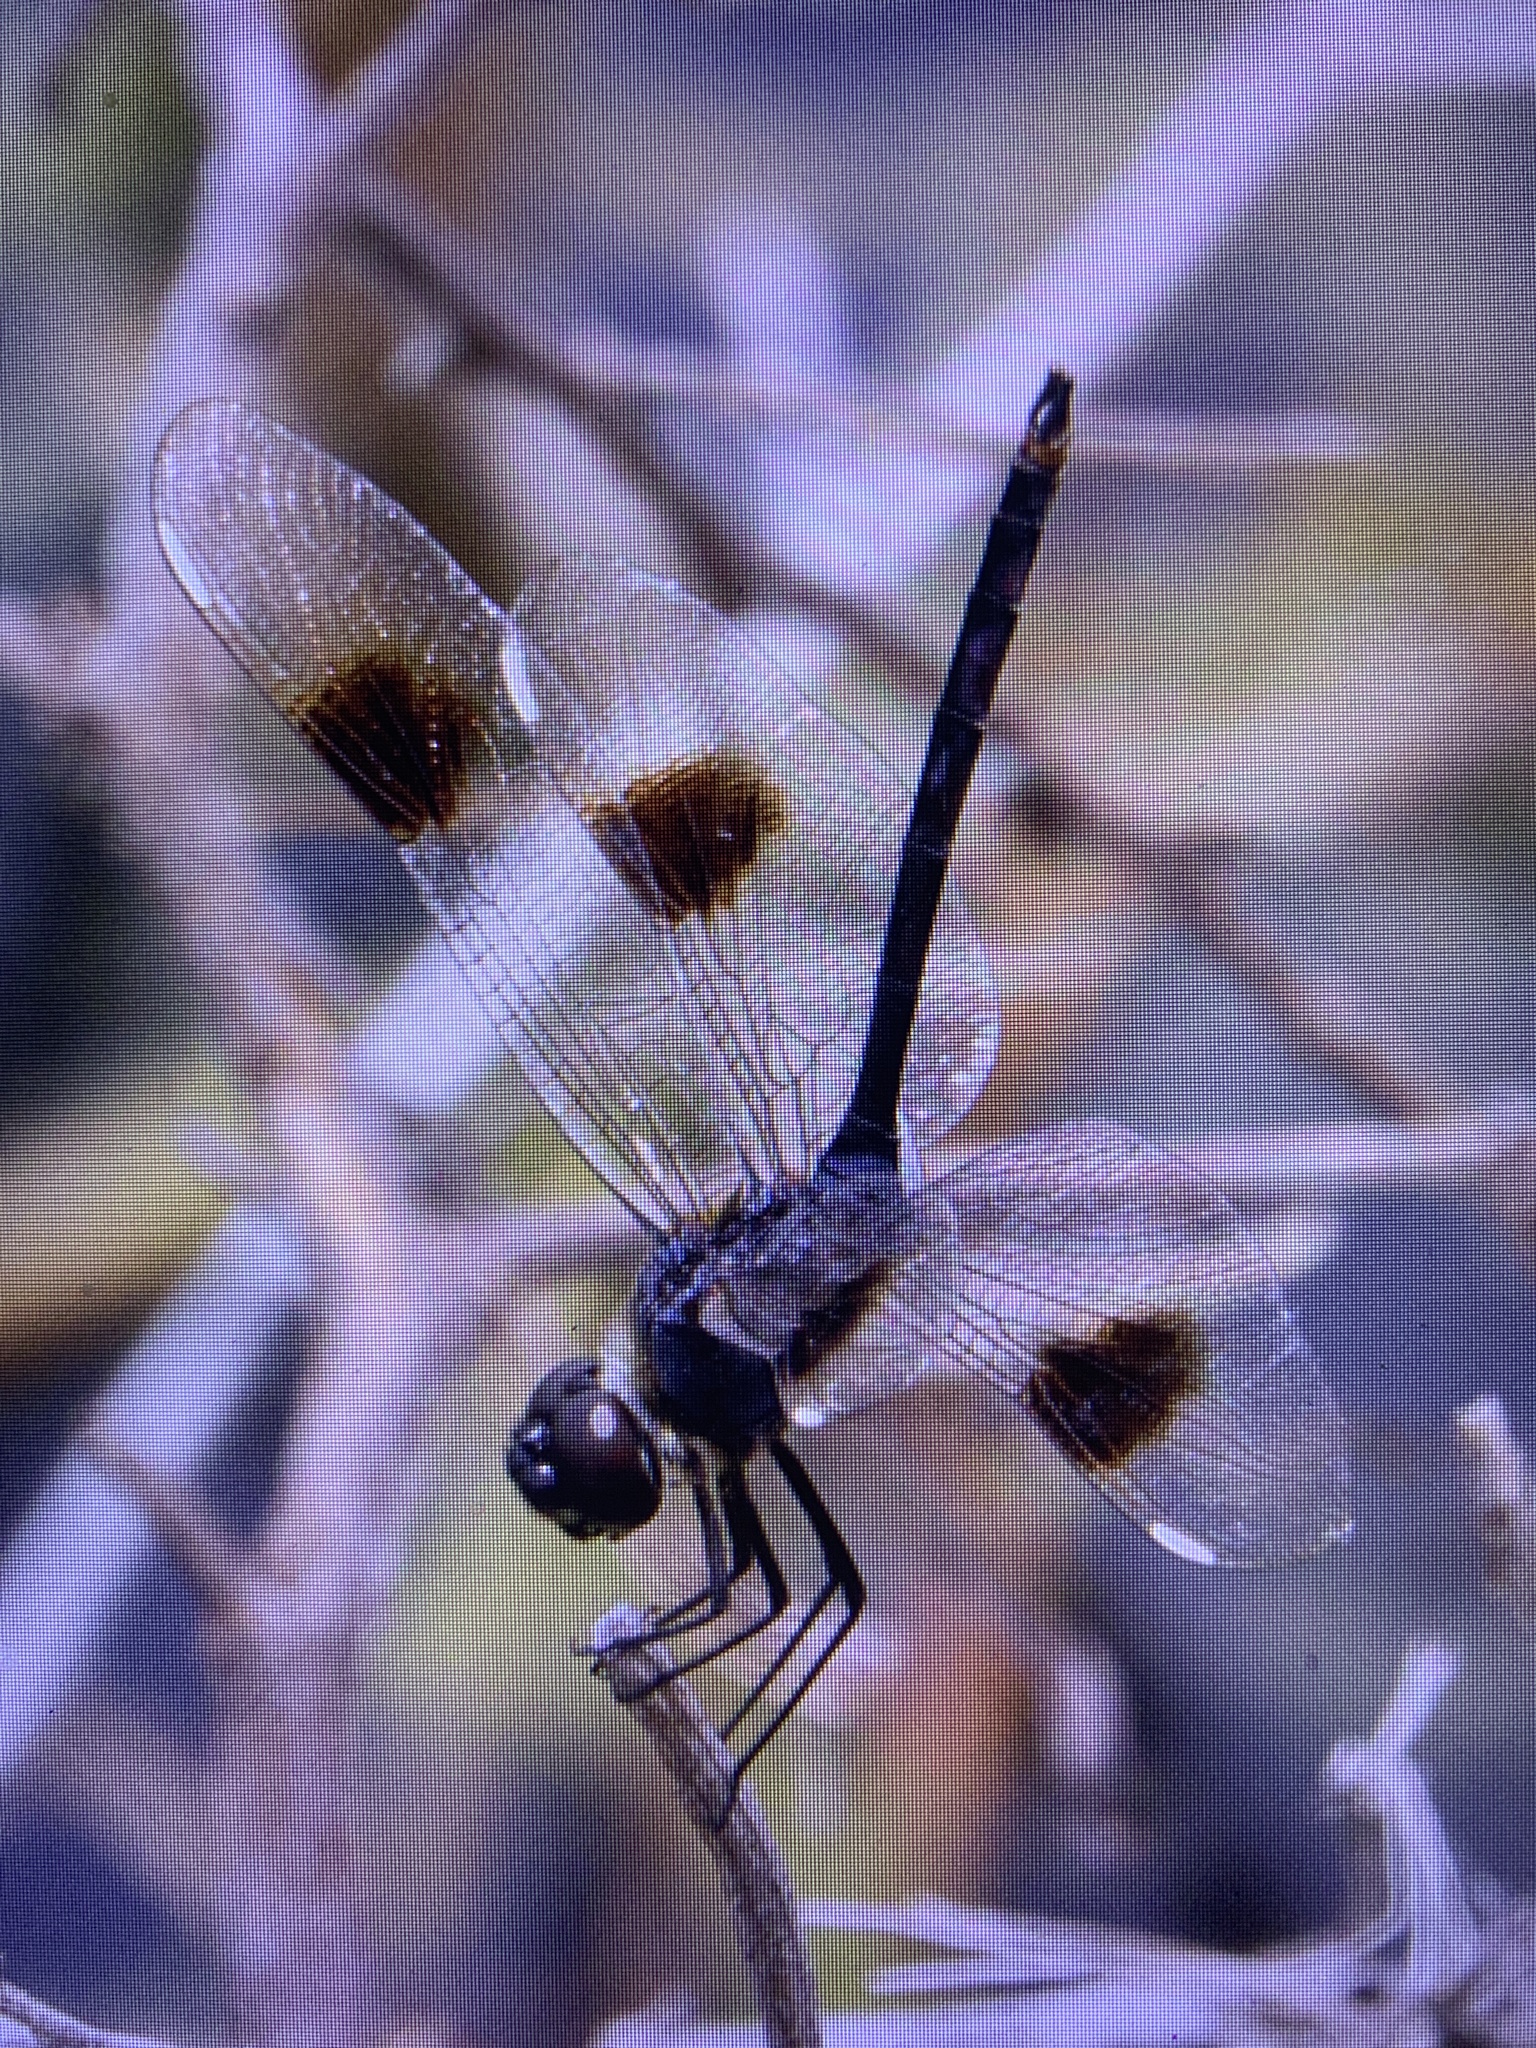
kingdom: Animalia
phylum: Arthropoda
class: Insecta
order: Odonata
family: Libellulidae
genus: Brachymesia
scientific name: Brachymesia gravida
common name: Four-spotted pennant
